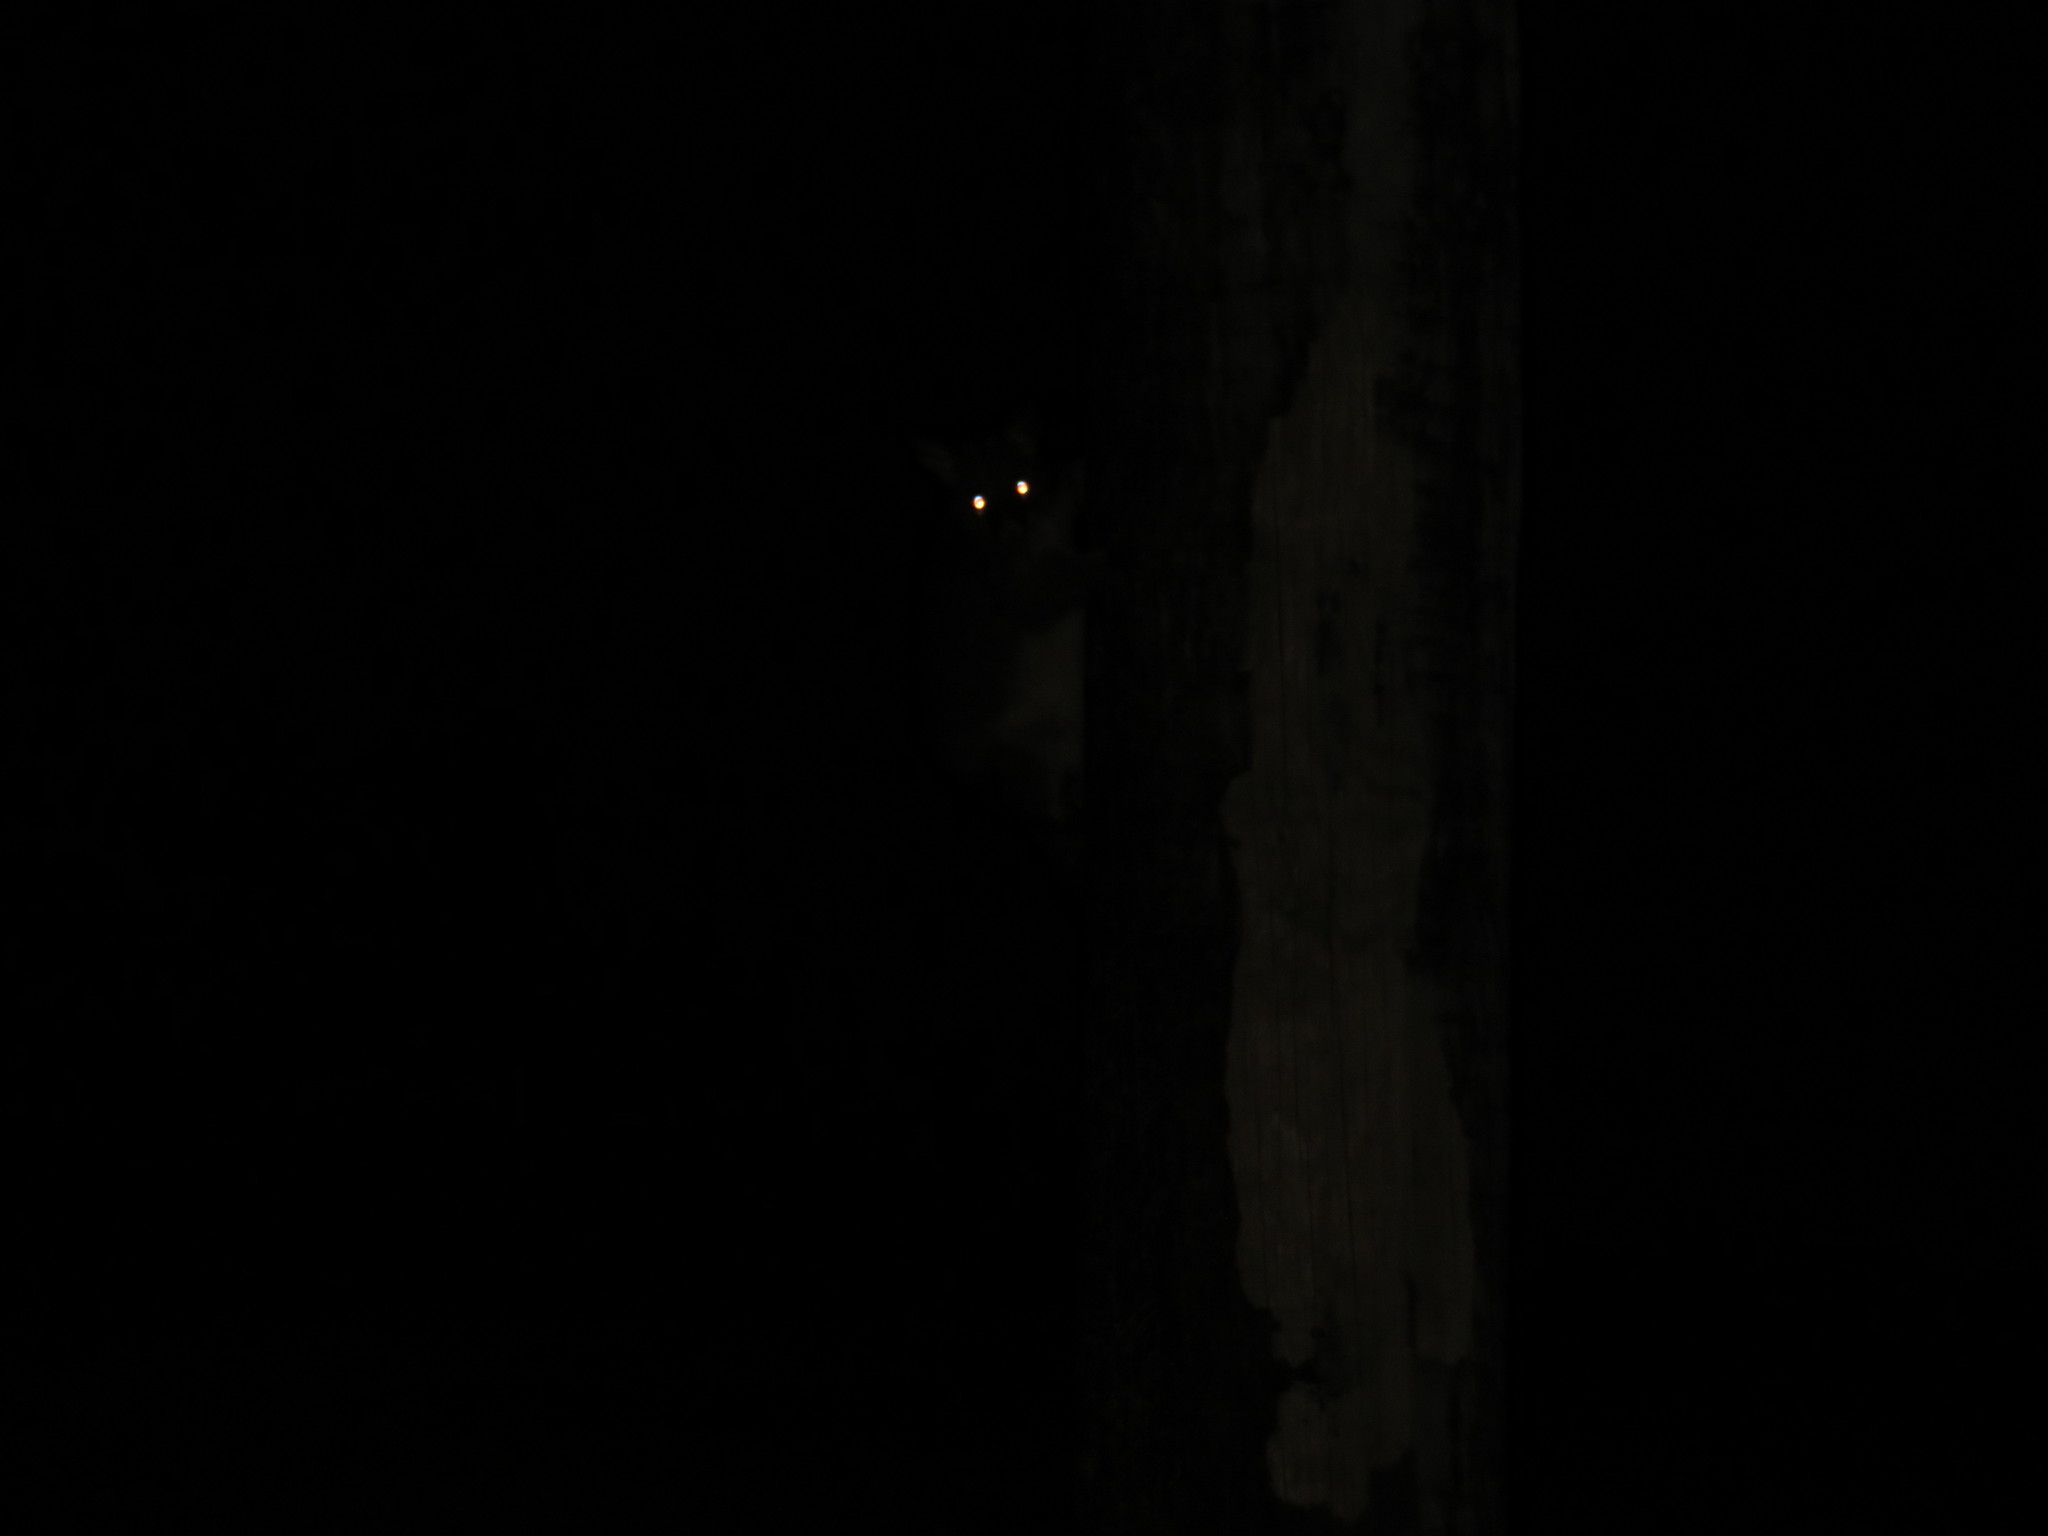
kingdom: Animalia
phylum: Chordata
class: Mammalia
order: Diprotodontia
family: Phalangeridae
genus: Trichosurus
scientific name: Trichosurus vulpecula
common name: Common brushtail
